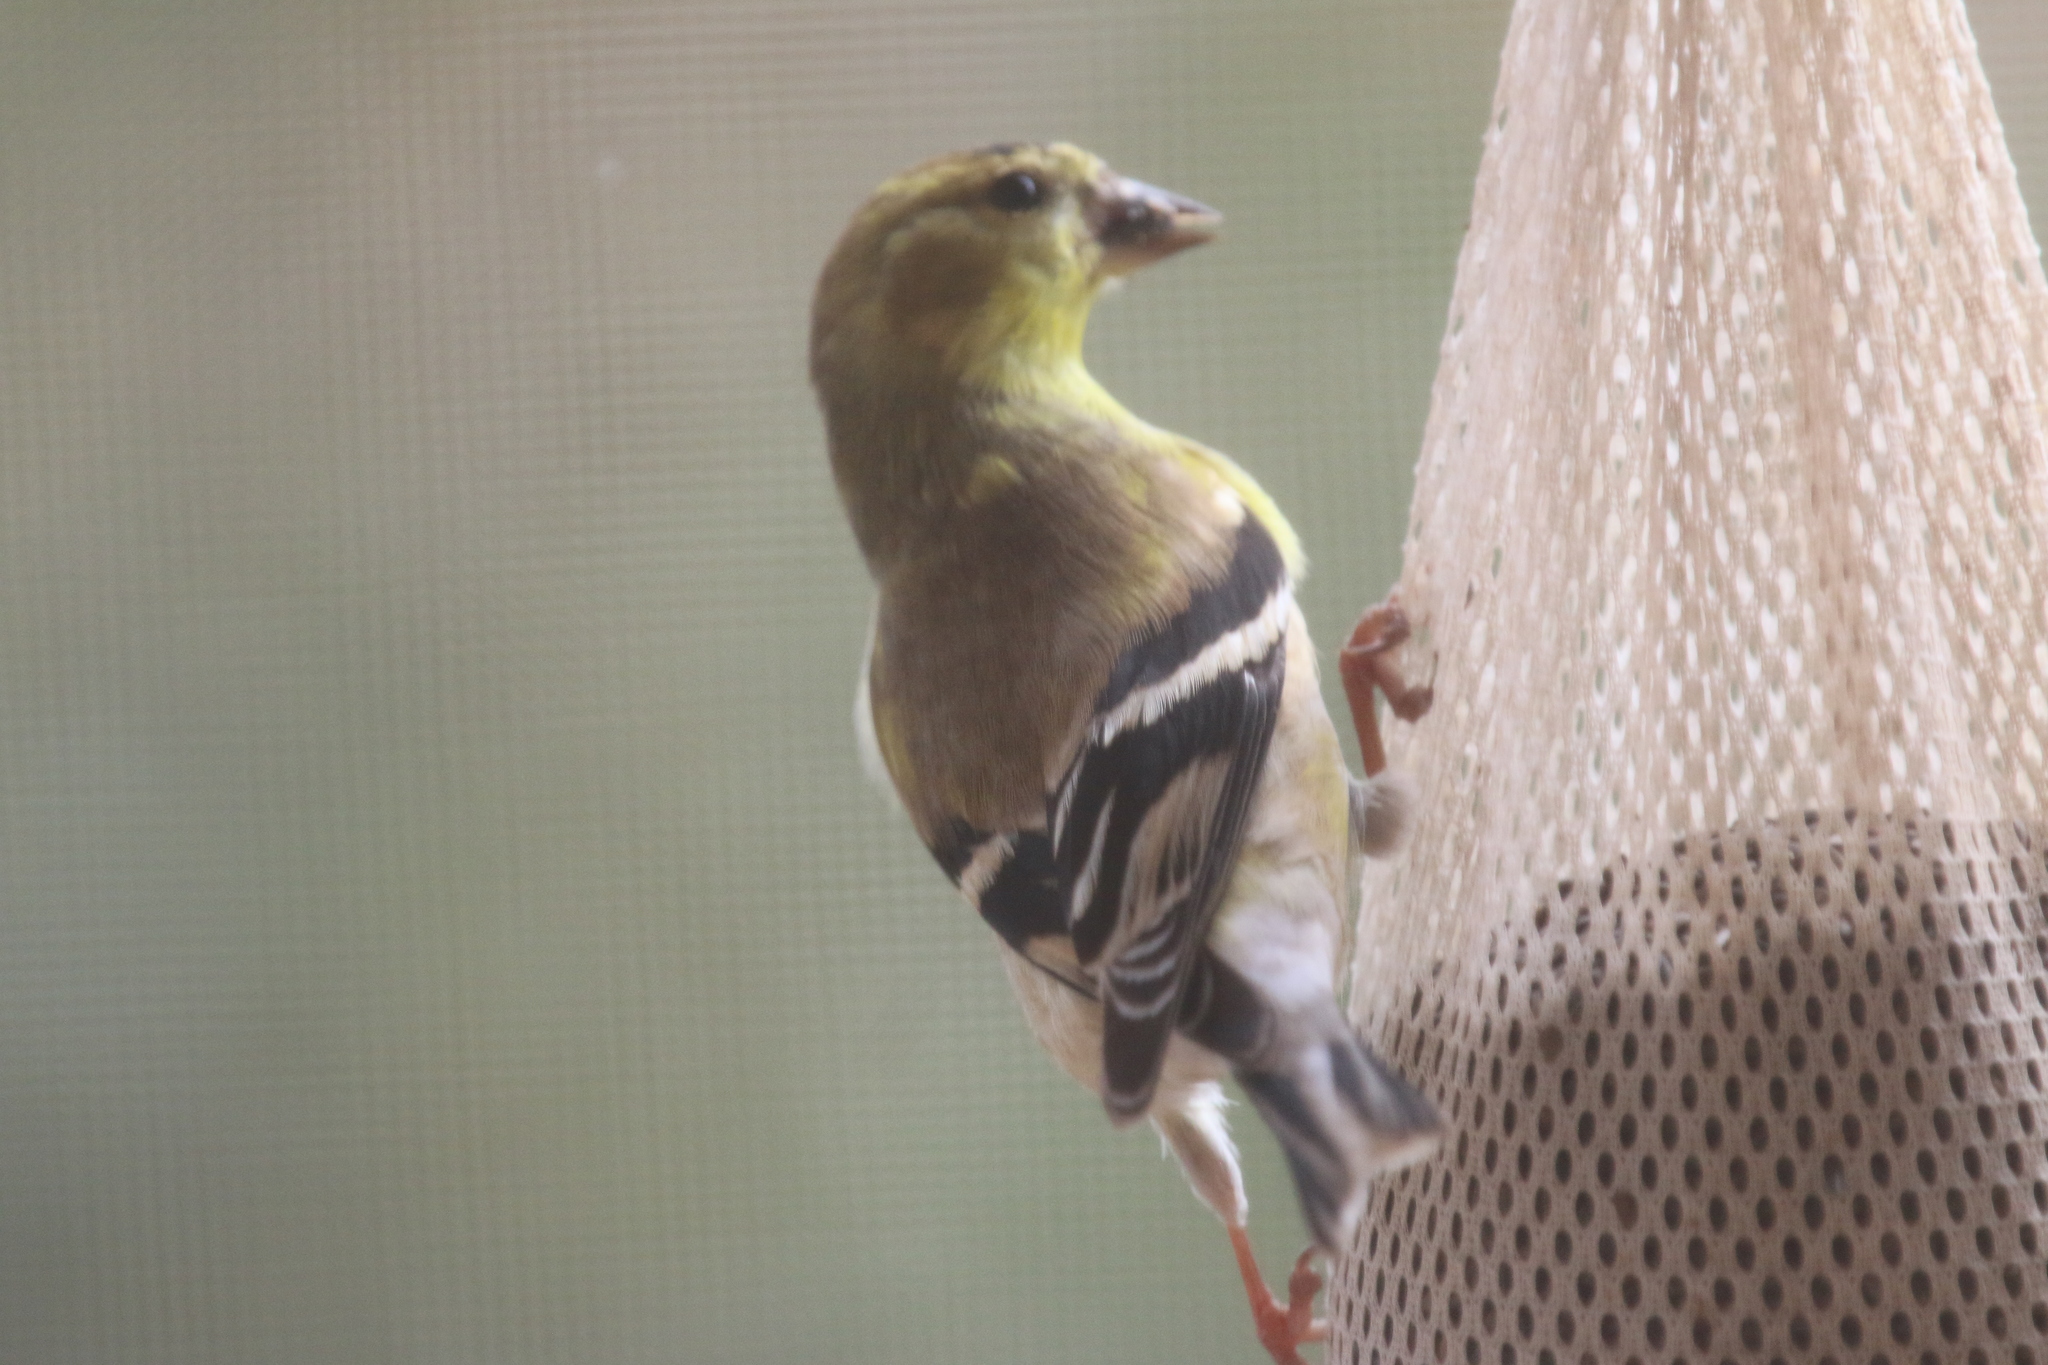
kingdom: Animalia
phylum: Chordata
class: Aves
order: Passeriformes
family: Fringillidae
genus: Spinus
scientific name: Spinus tristis
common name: American goldfinch
